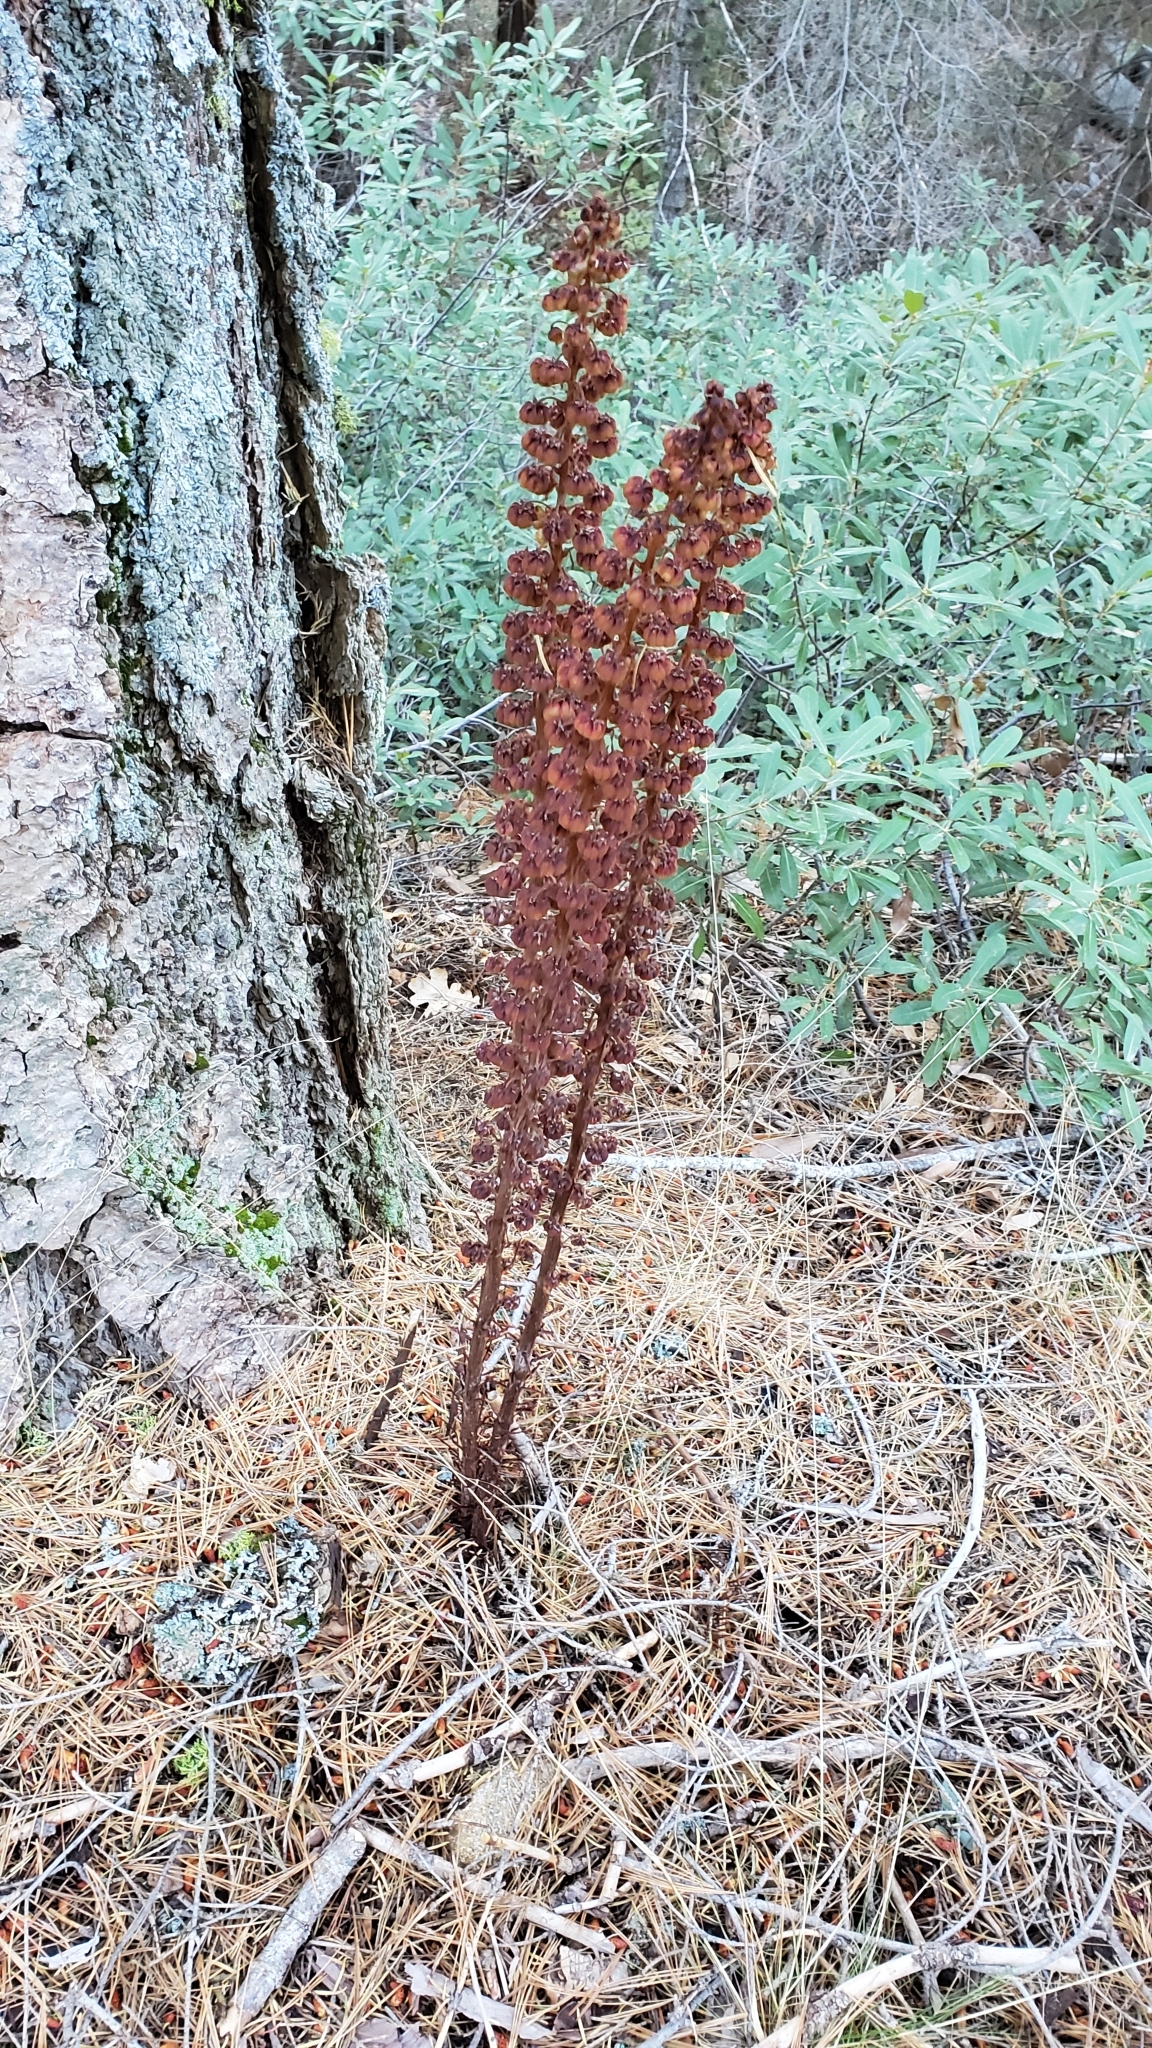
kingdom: Plantae
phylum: Tracheophyta
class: Magnoliopsida
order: Ericales
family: Ericaceae
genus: Pterospora
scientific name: Pterospora andromedea
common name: Giant bird's-nest
